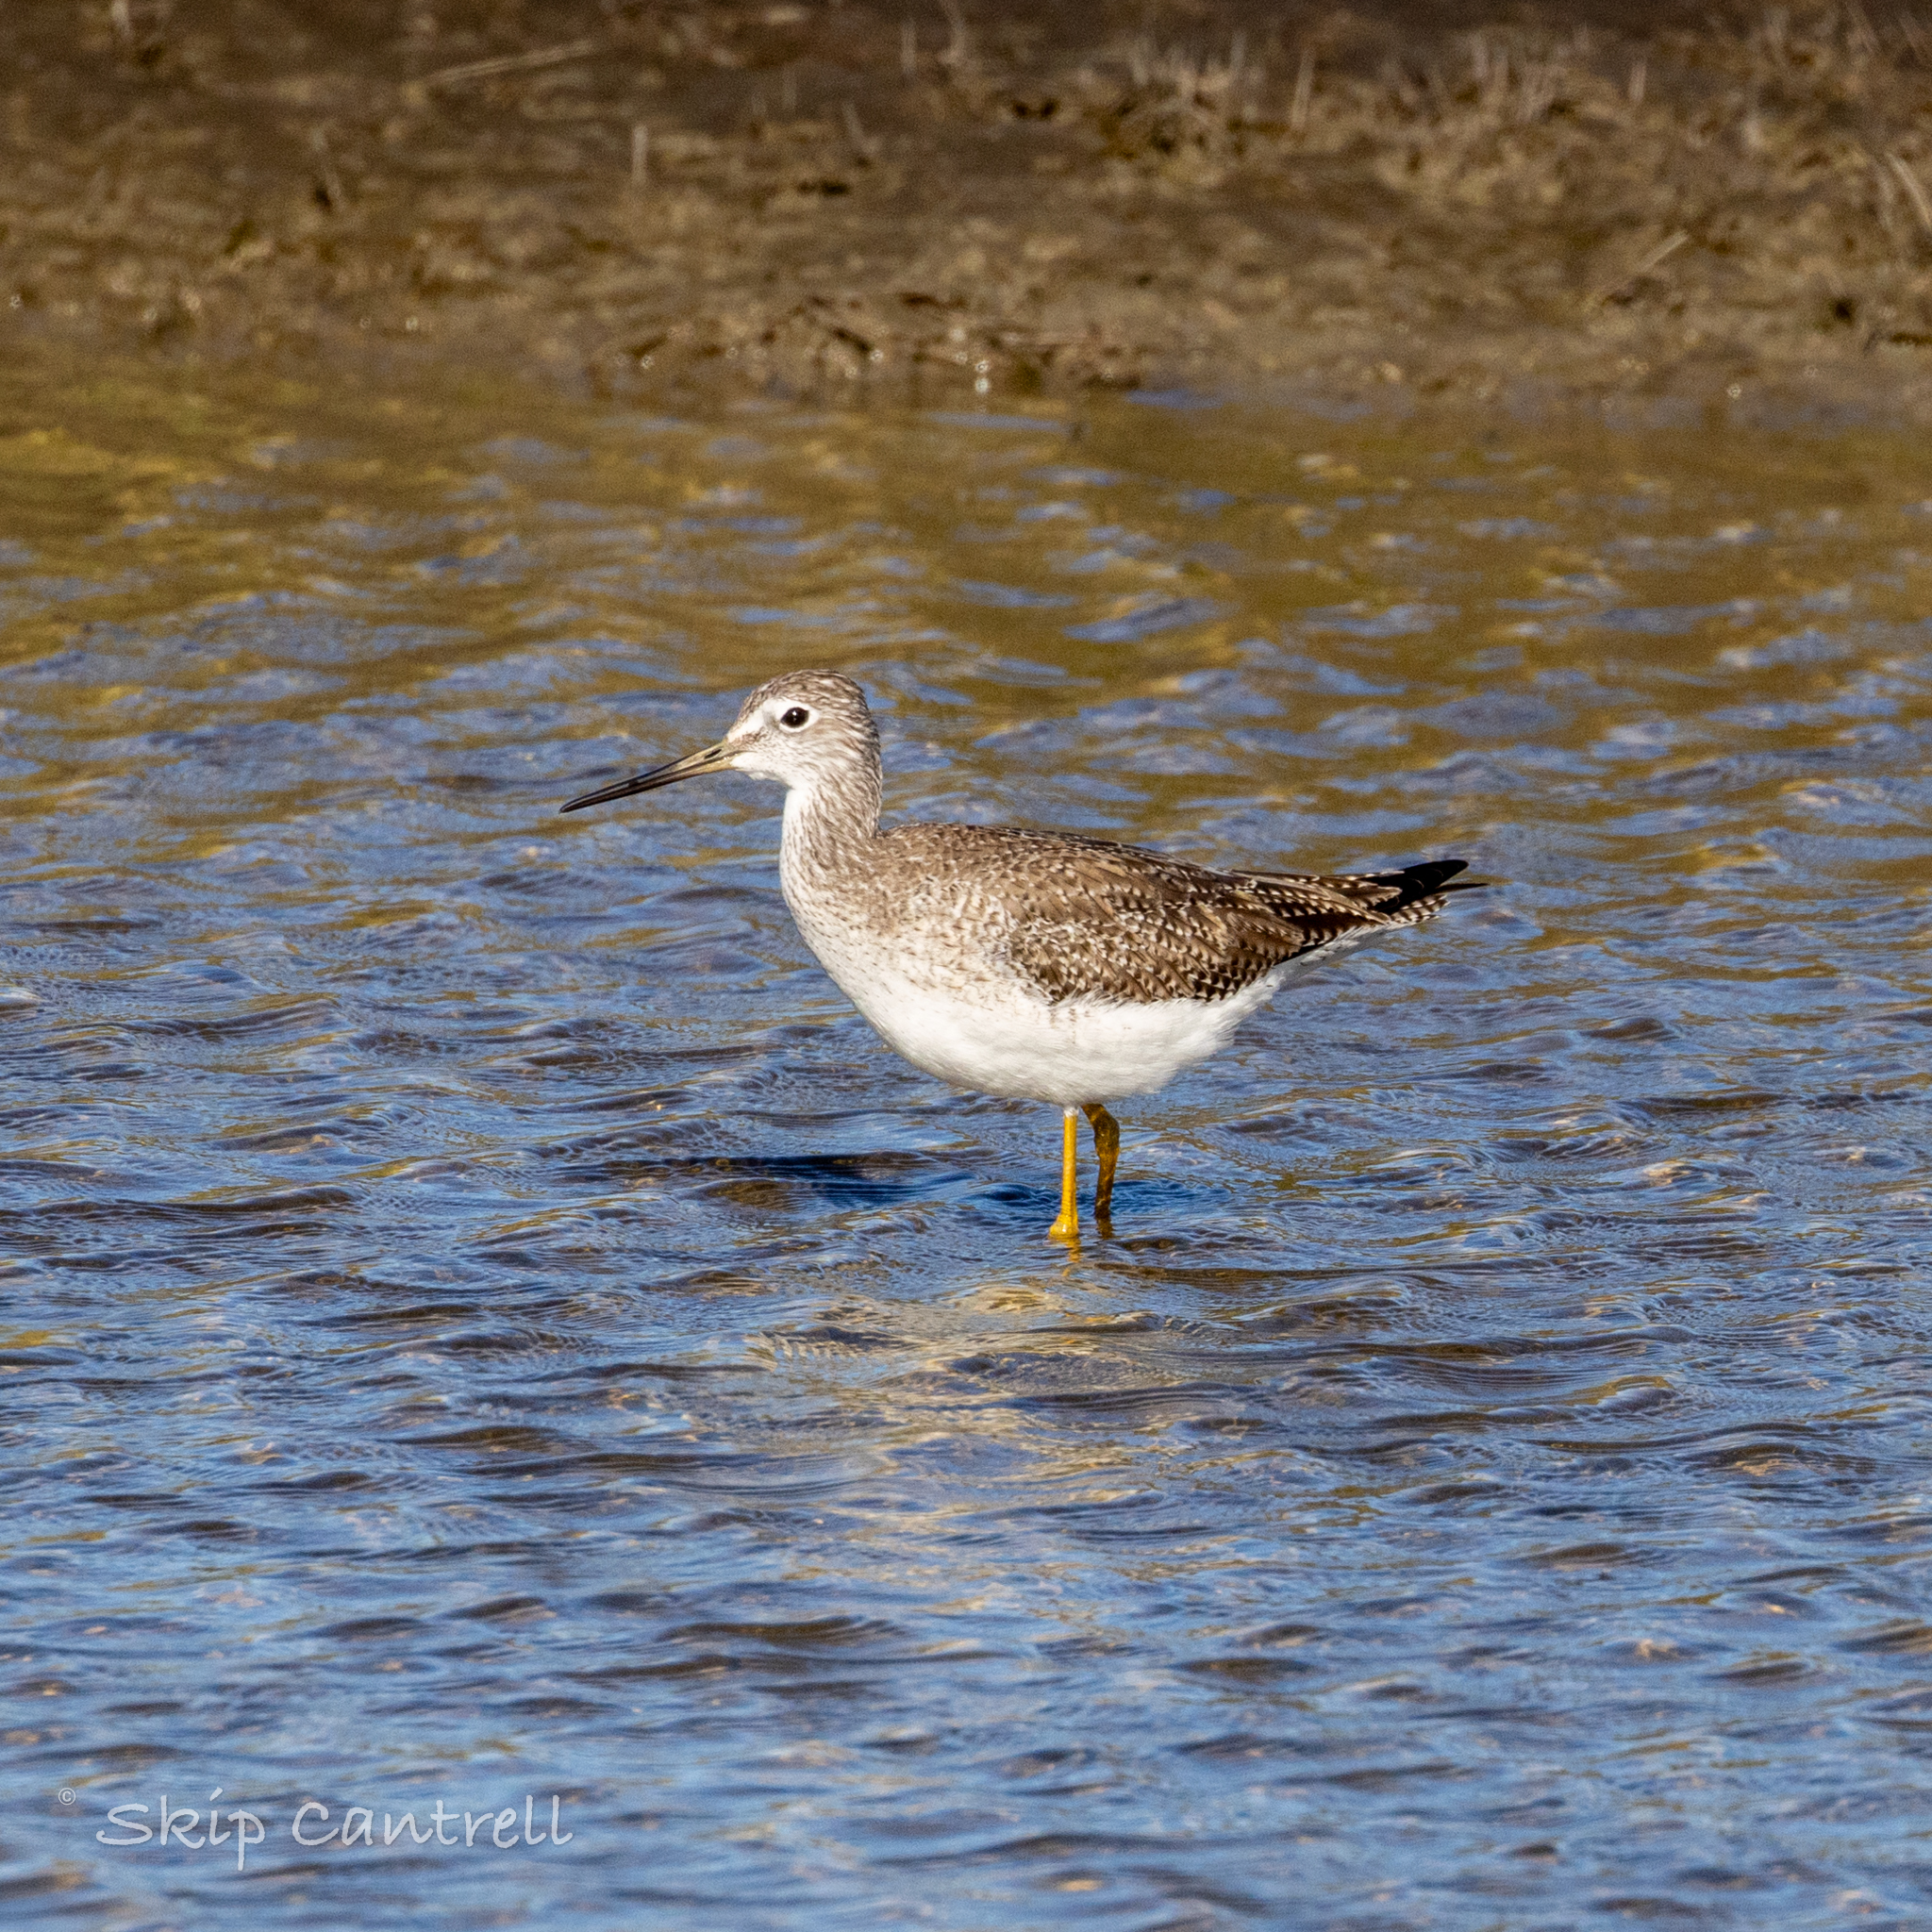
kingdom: Animalia
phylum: Chordata
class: Aves
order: Charadriiformes
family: Scolopacidae
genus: Tringa
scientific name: Tringa melanoleuca
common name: Greater yellowlegs
